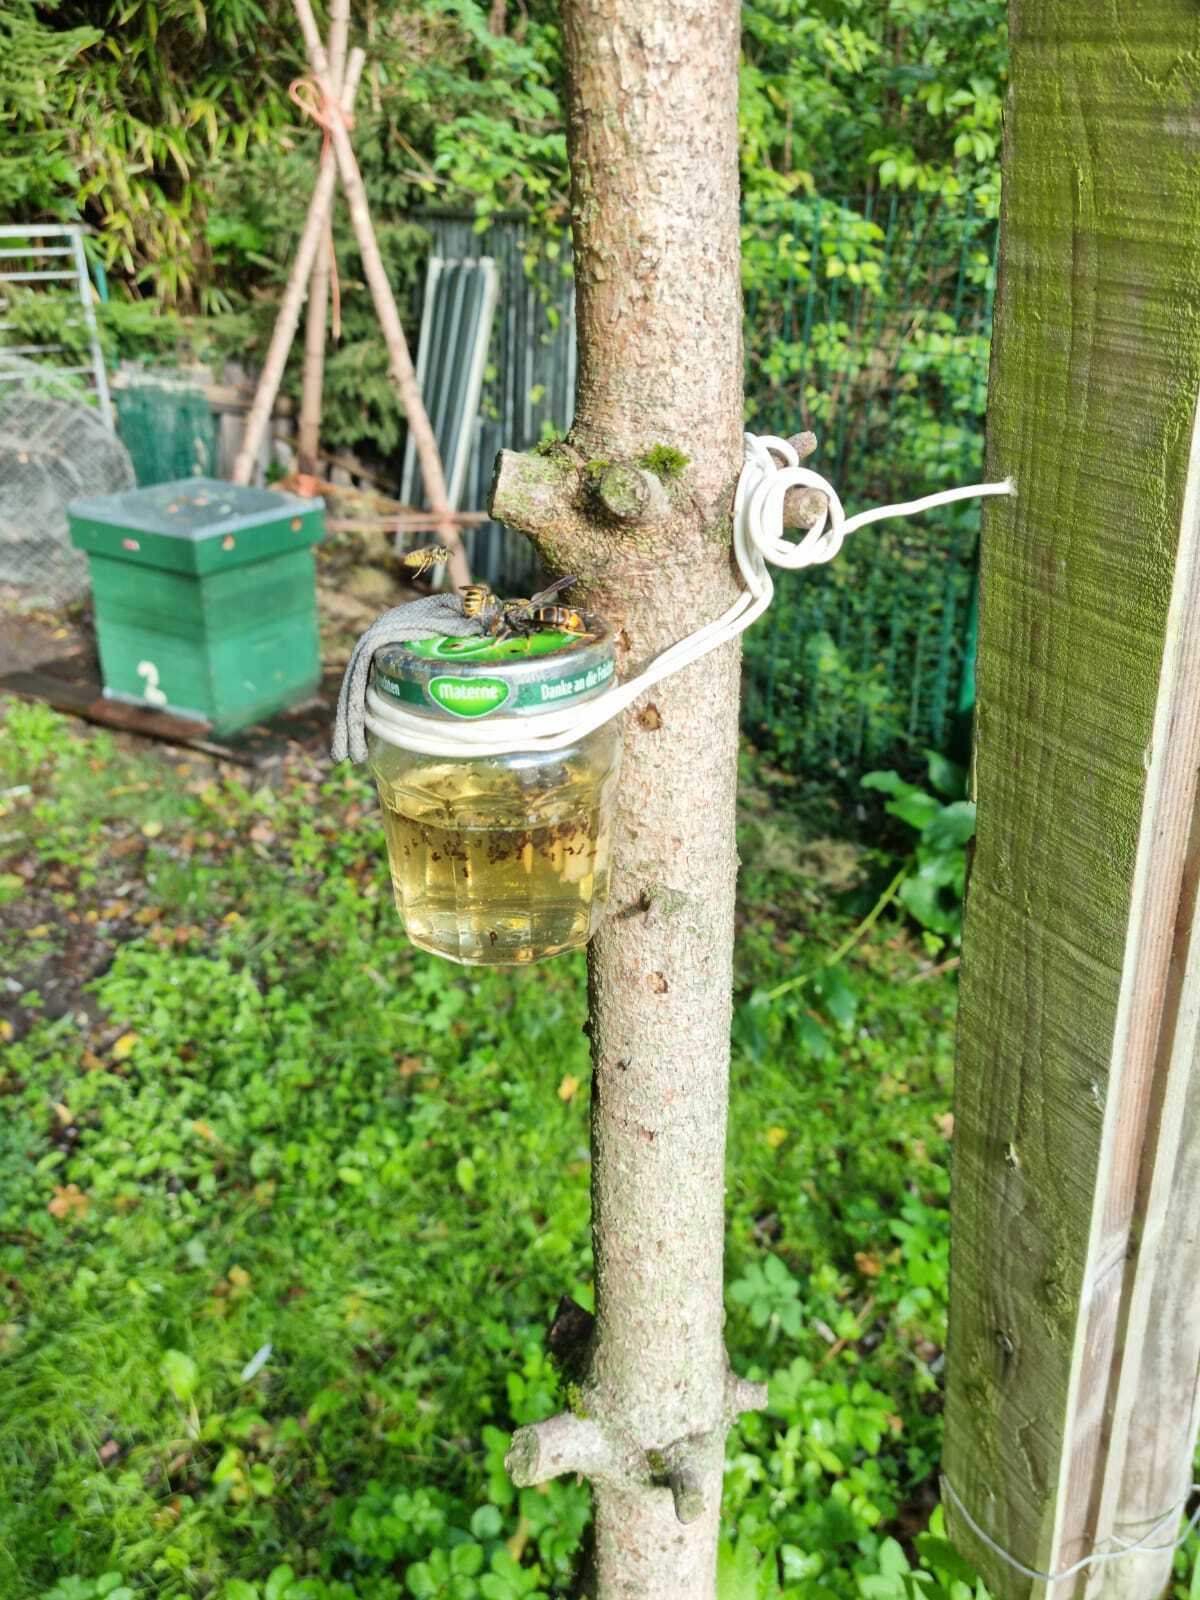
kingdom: Animalia
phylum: Arthropoda
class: Insecta
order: Hymenoptera
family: Vespidae
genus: Vespa
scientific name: Vespa velutina
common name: Asian hornet
